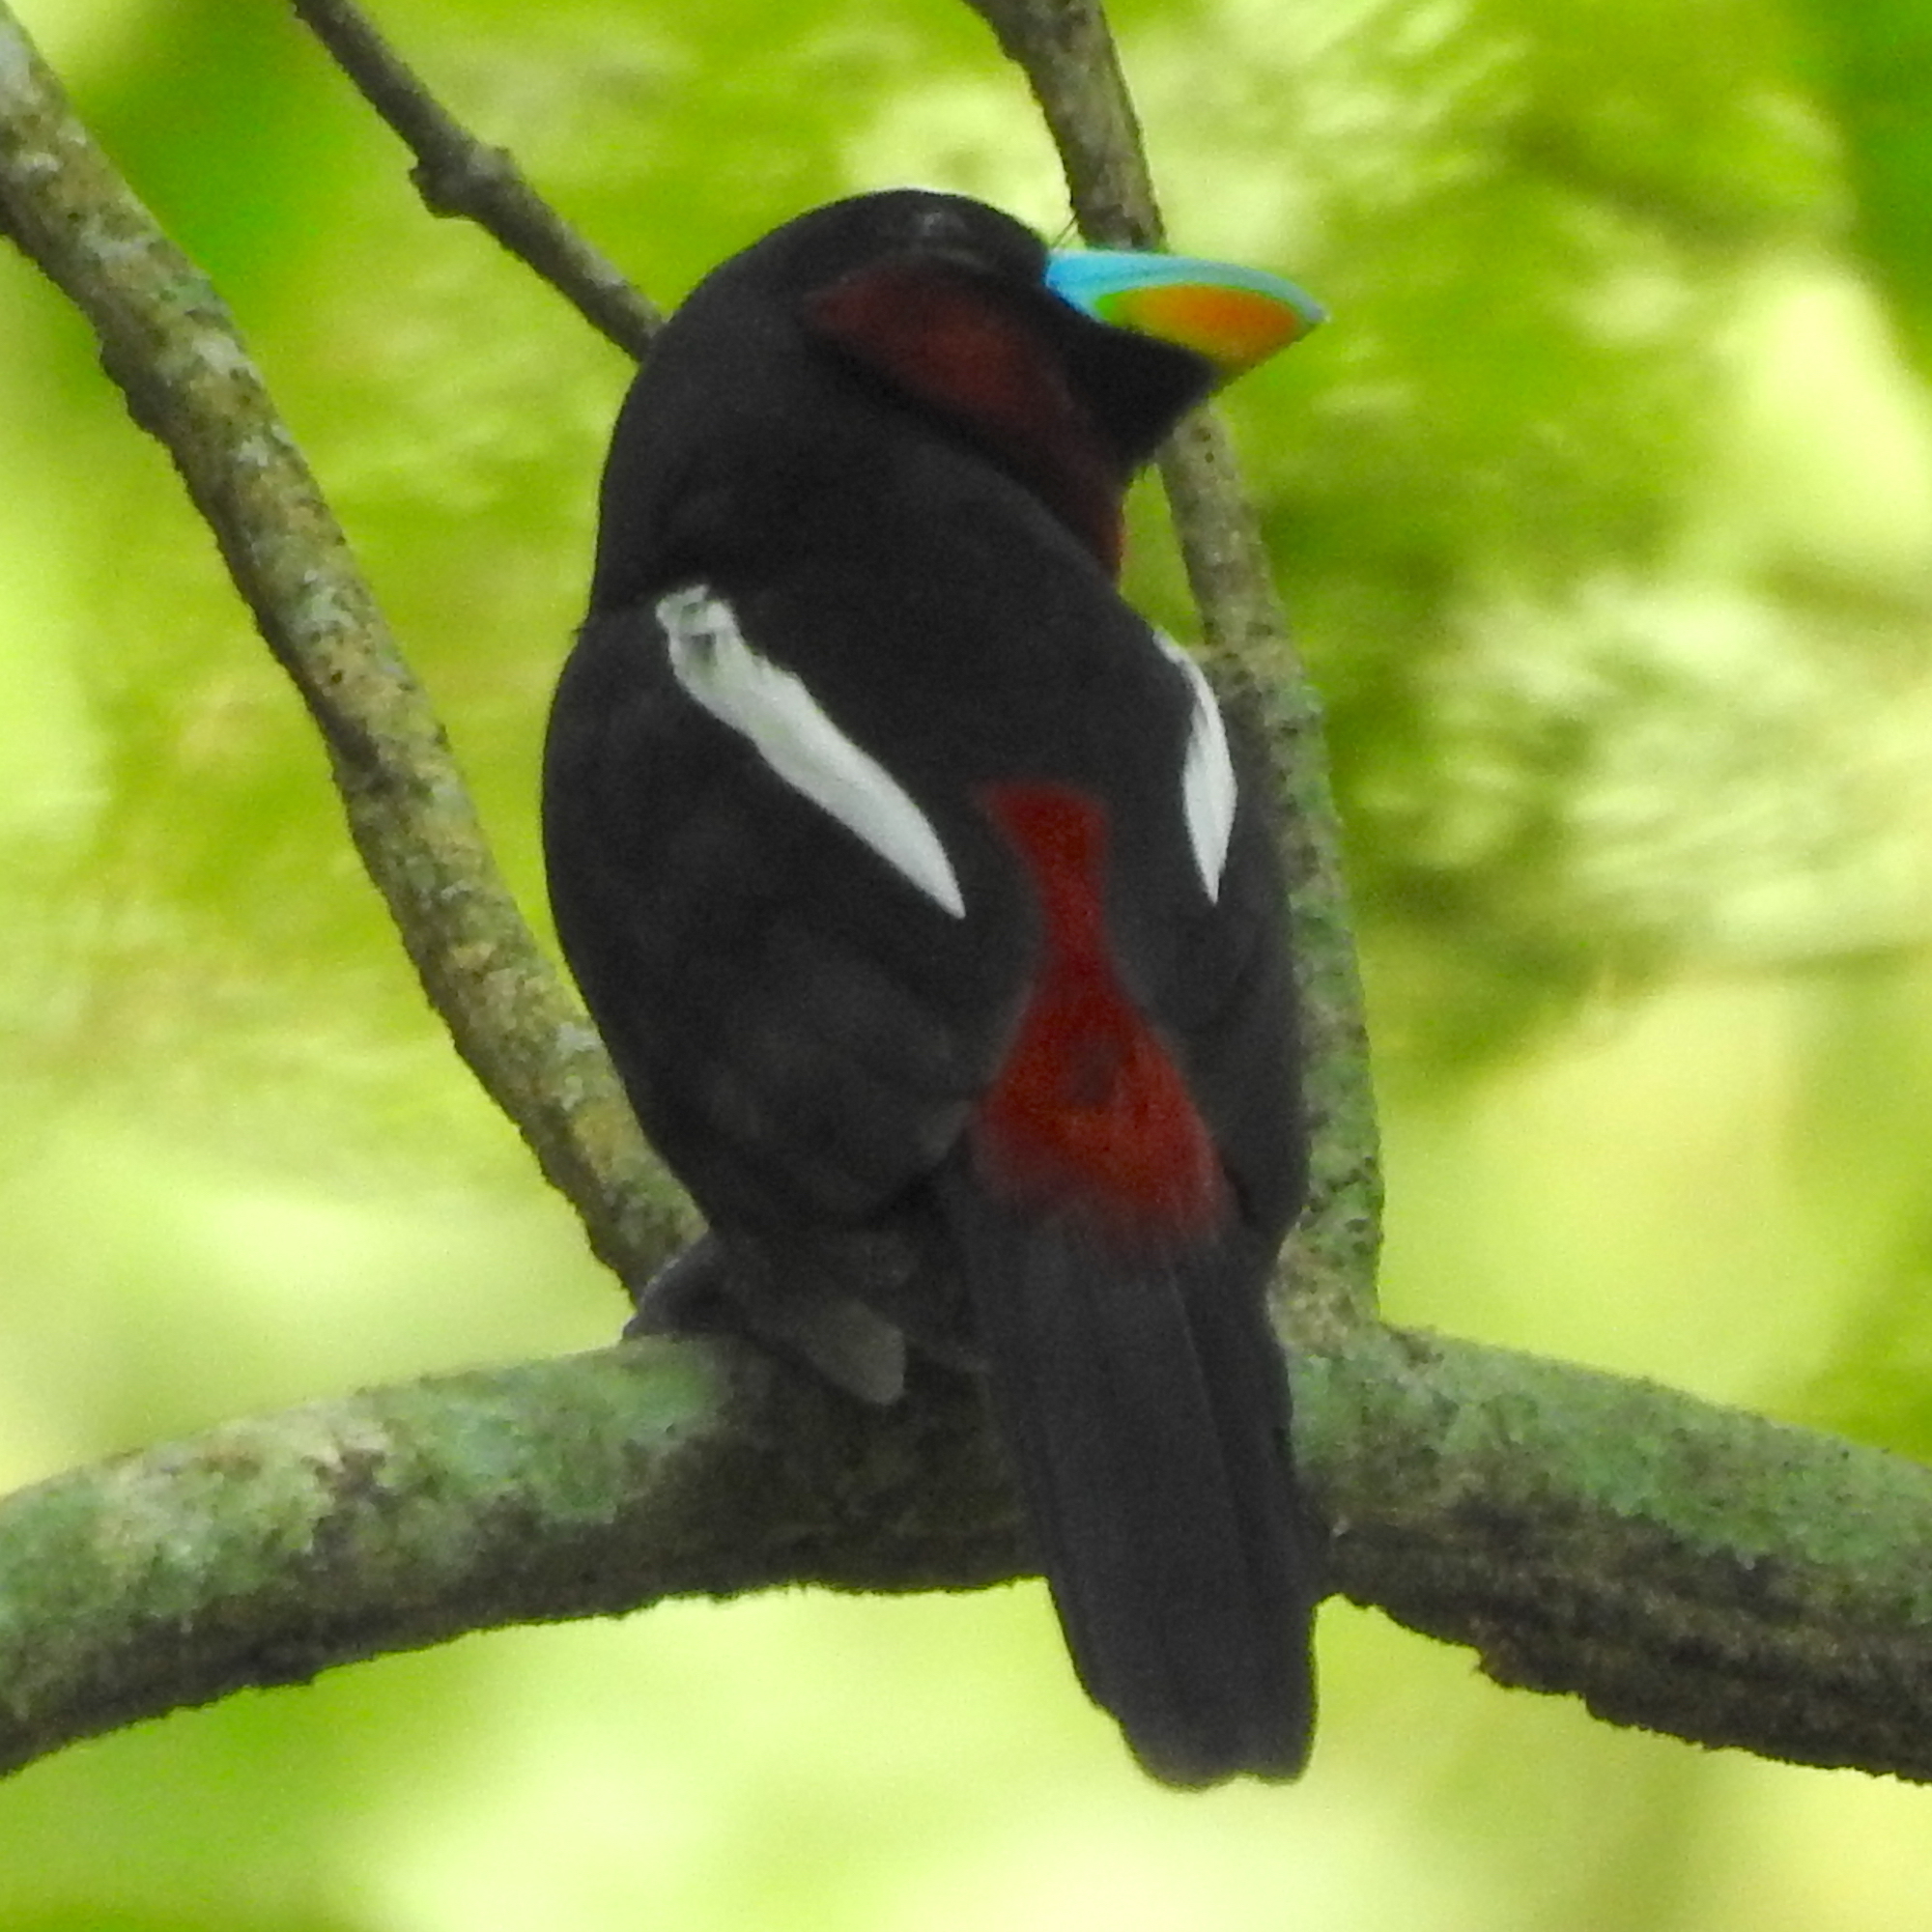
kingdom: Animalia
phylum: Chordata
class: Aves
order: Passeriformes
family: Eurylaimidae
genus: Cymbirhynchus
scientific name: Cymbirhynchus macrorhynchos
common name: Black-and-red broadbill
